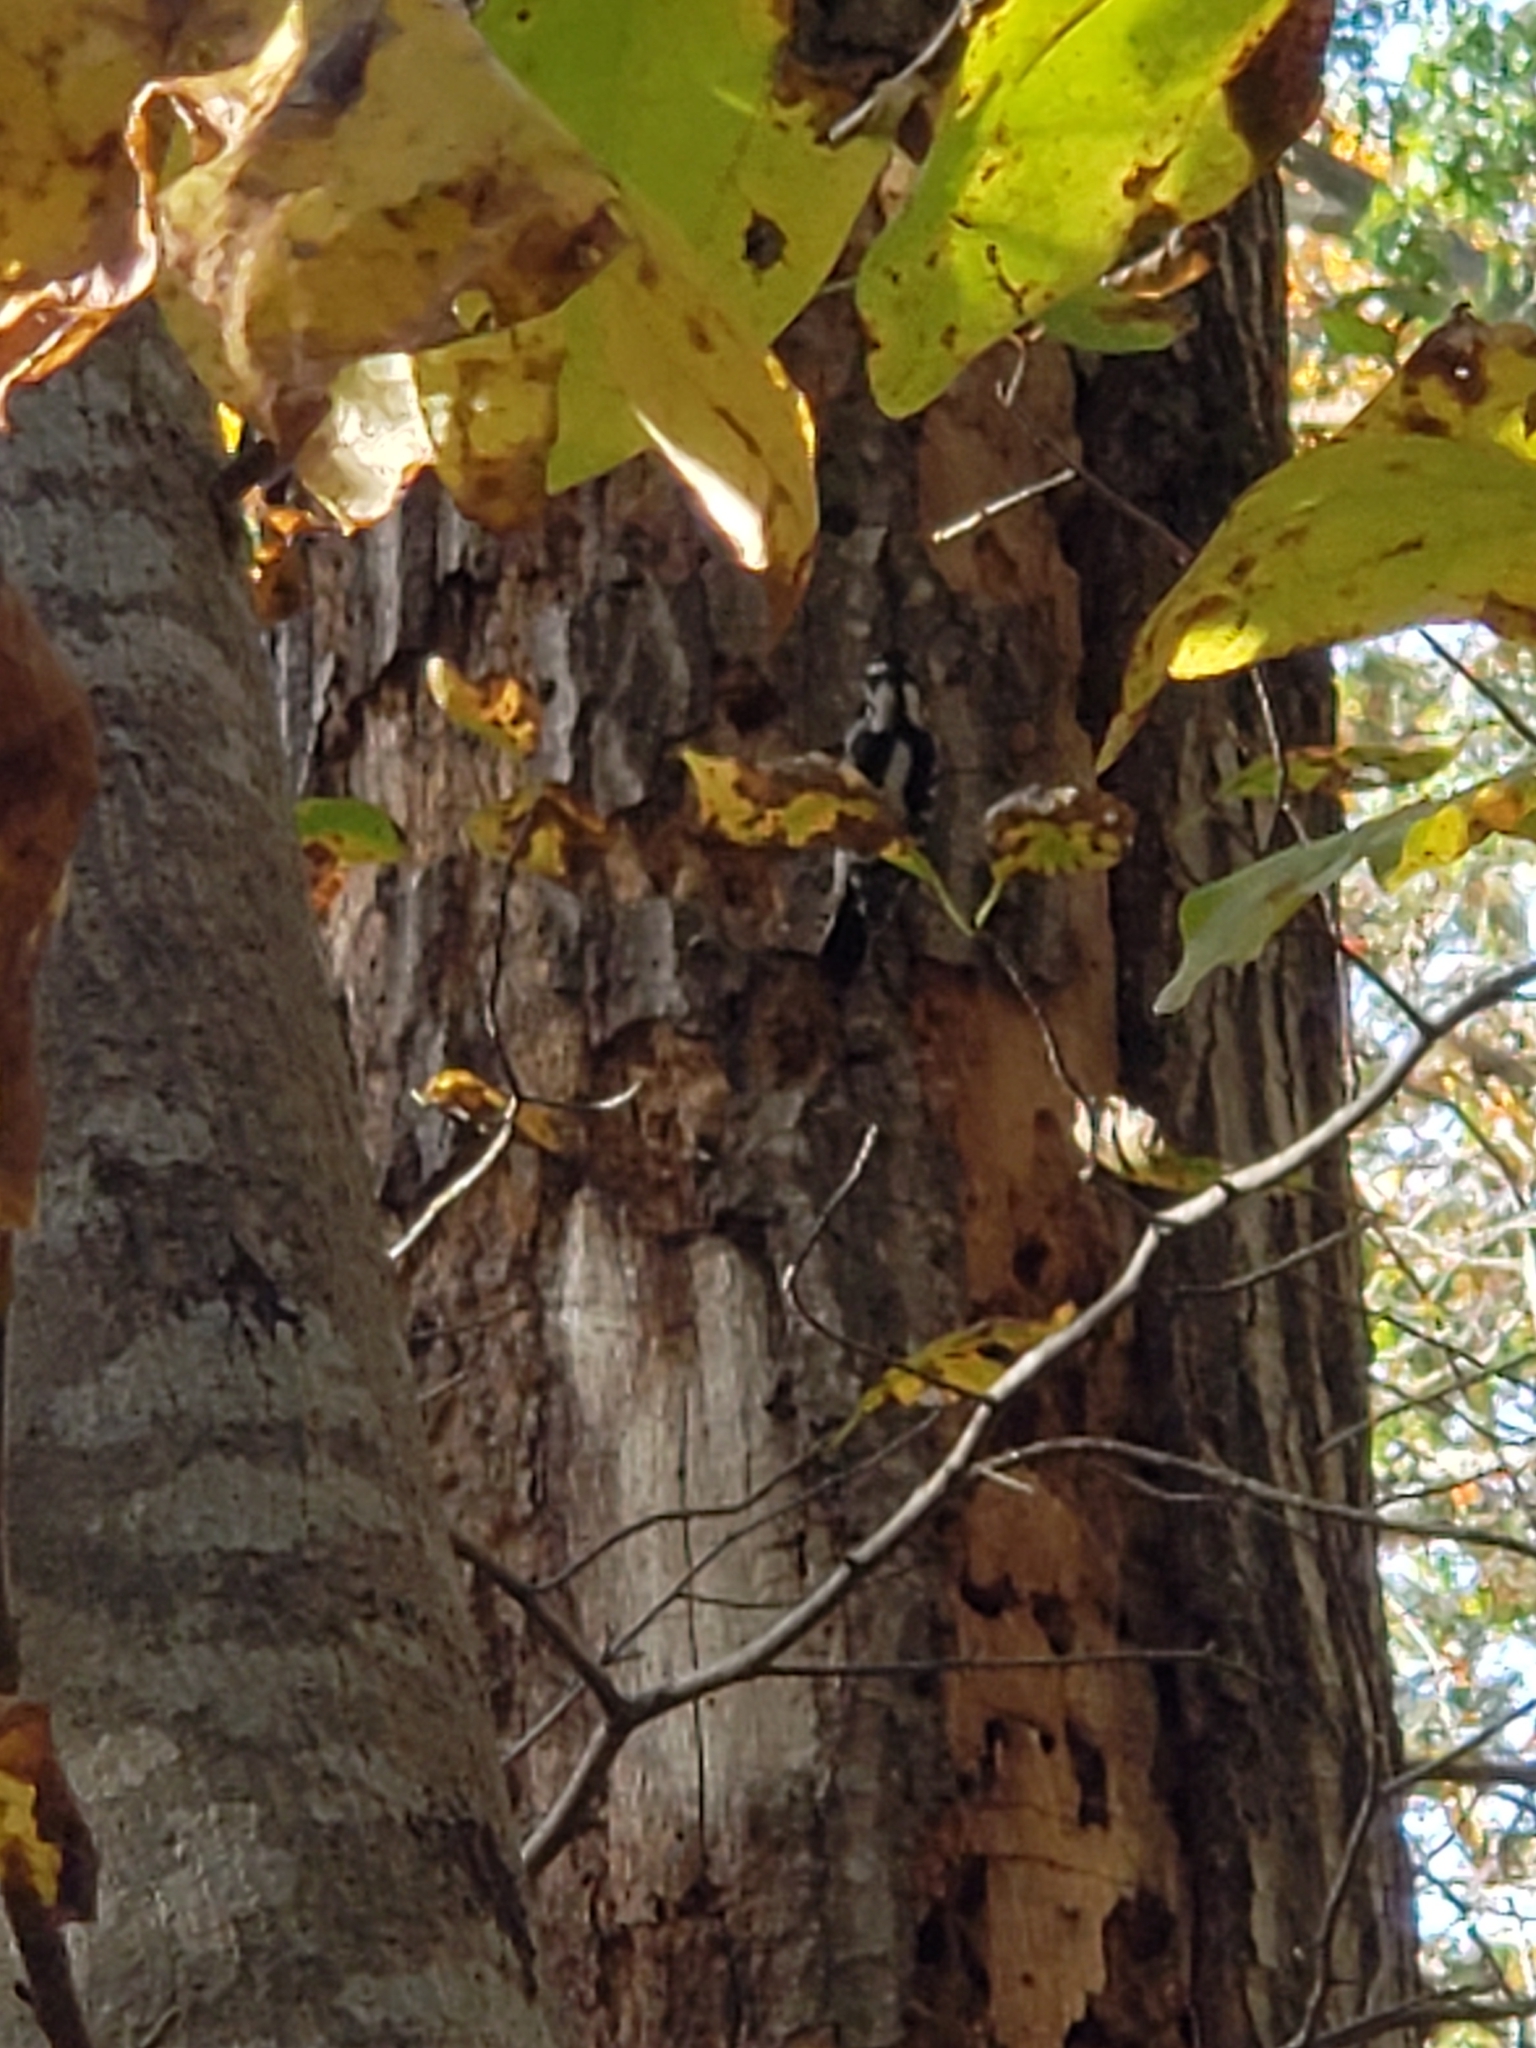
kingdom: Animalia
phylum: Chordata
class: Aves
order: Piciformes
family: Picidae
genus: Dryobates
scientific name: Dryobates pubescens
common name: Downy woodpecker
